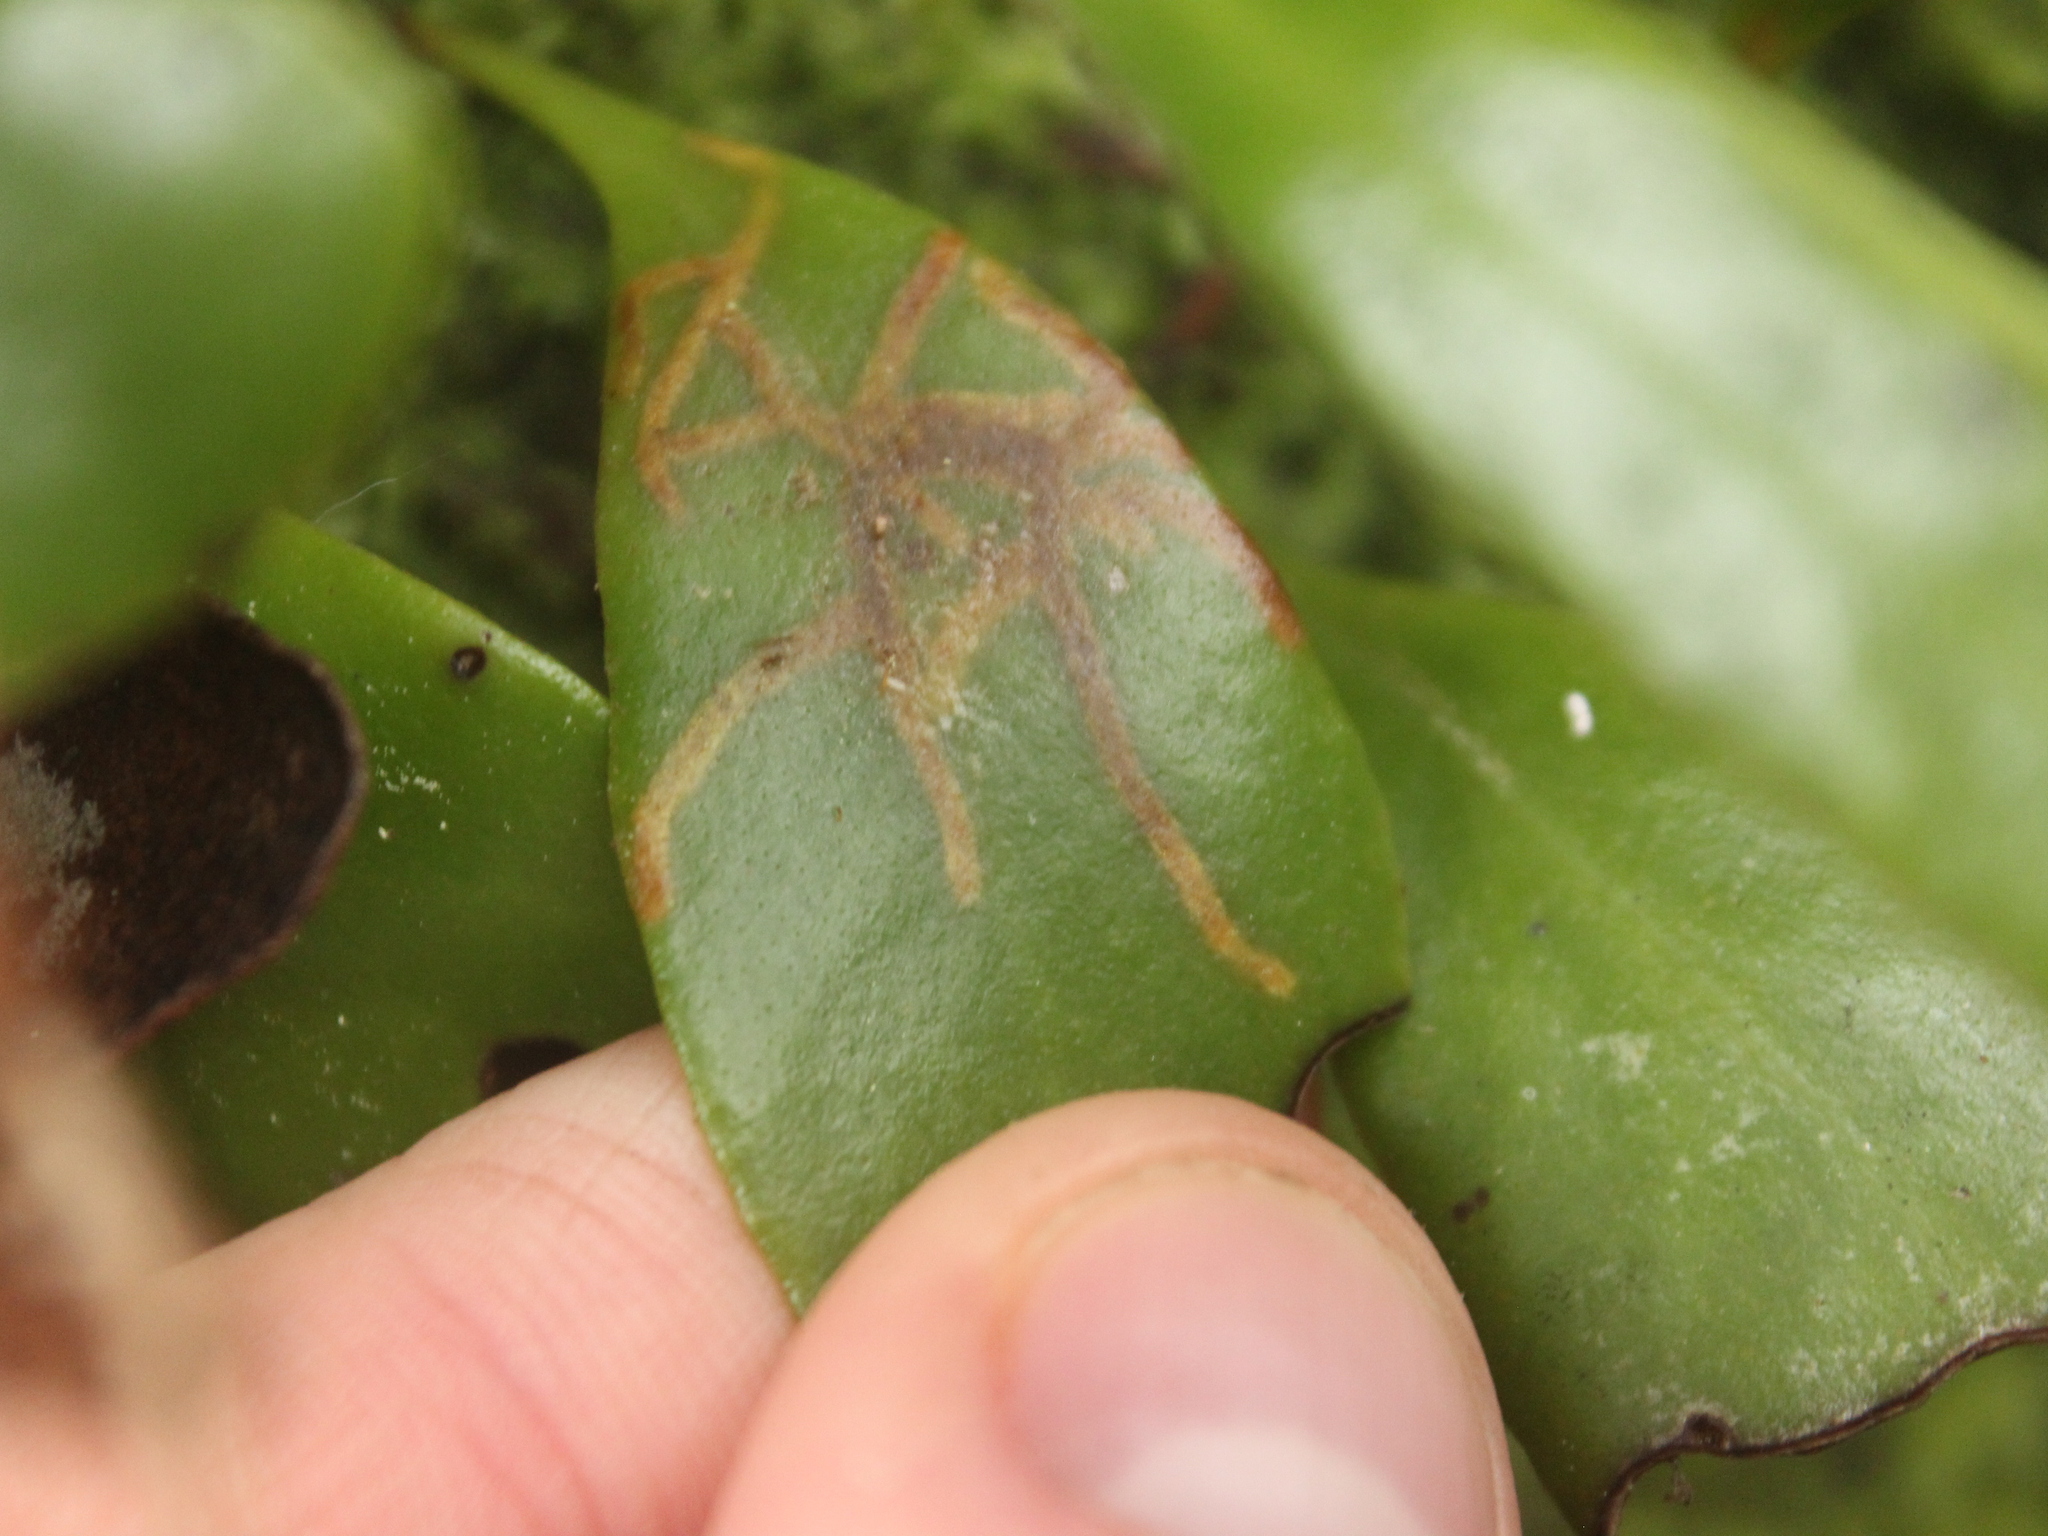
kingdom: Animalia
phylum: Arthropoda
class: Insecta
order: Lepidoptera
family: Tortricidae
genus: Philocryptica
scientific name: Philocryptica polypodii
